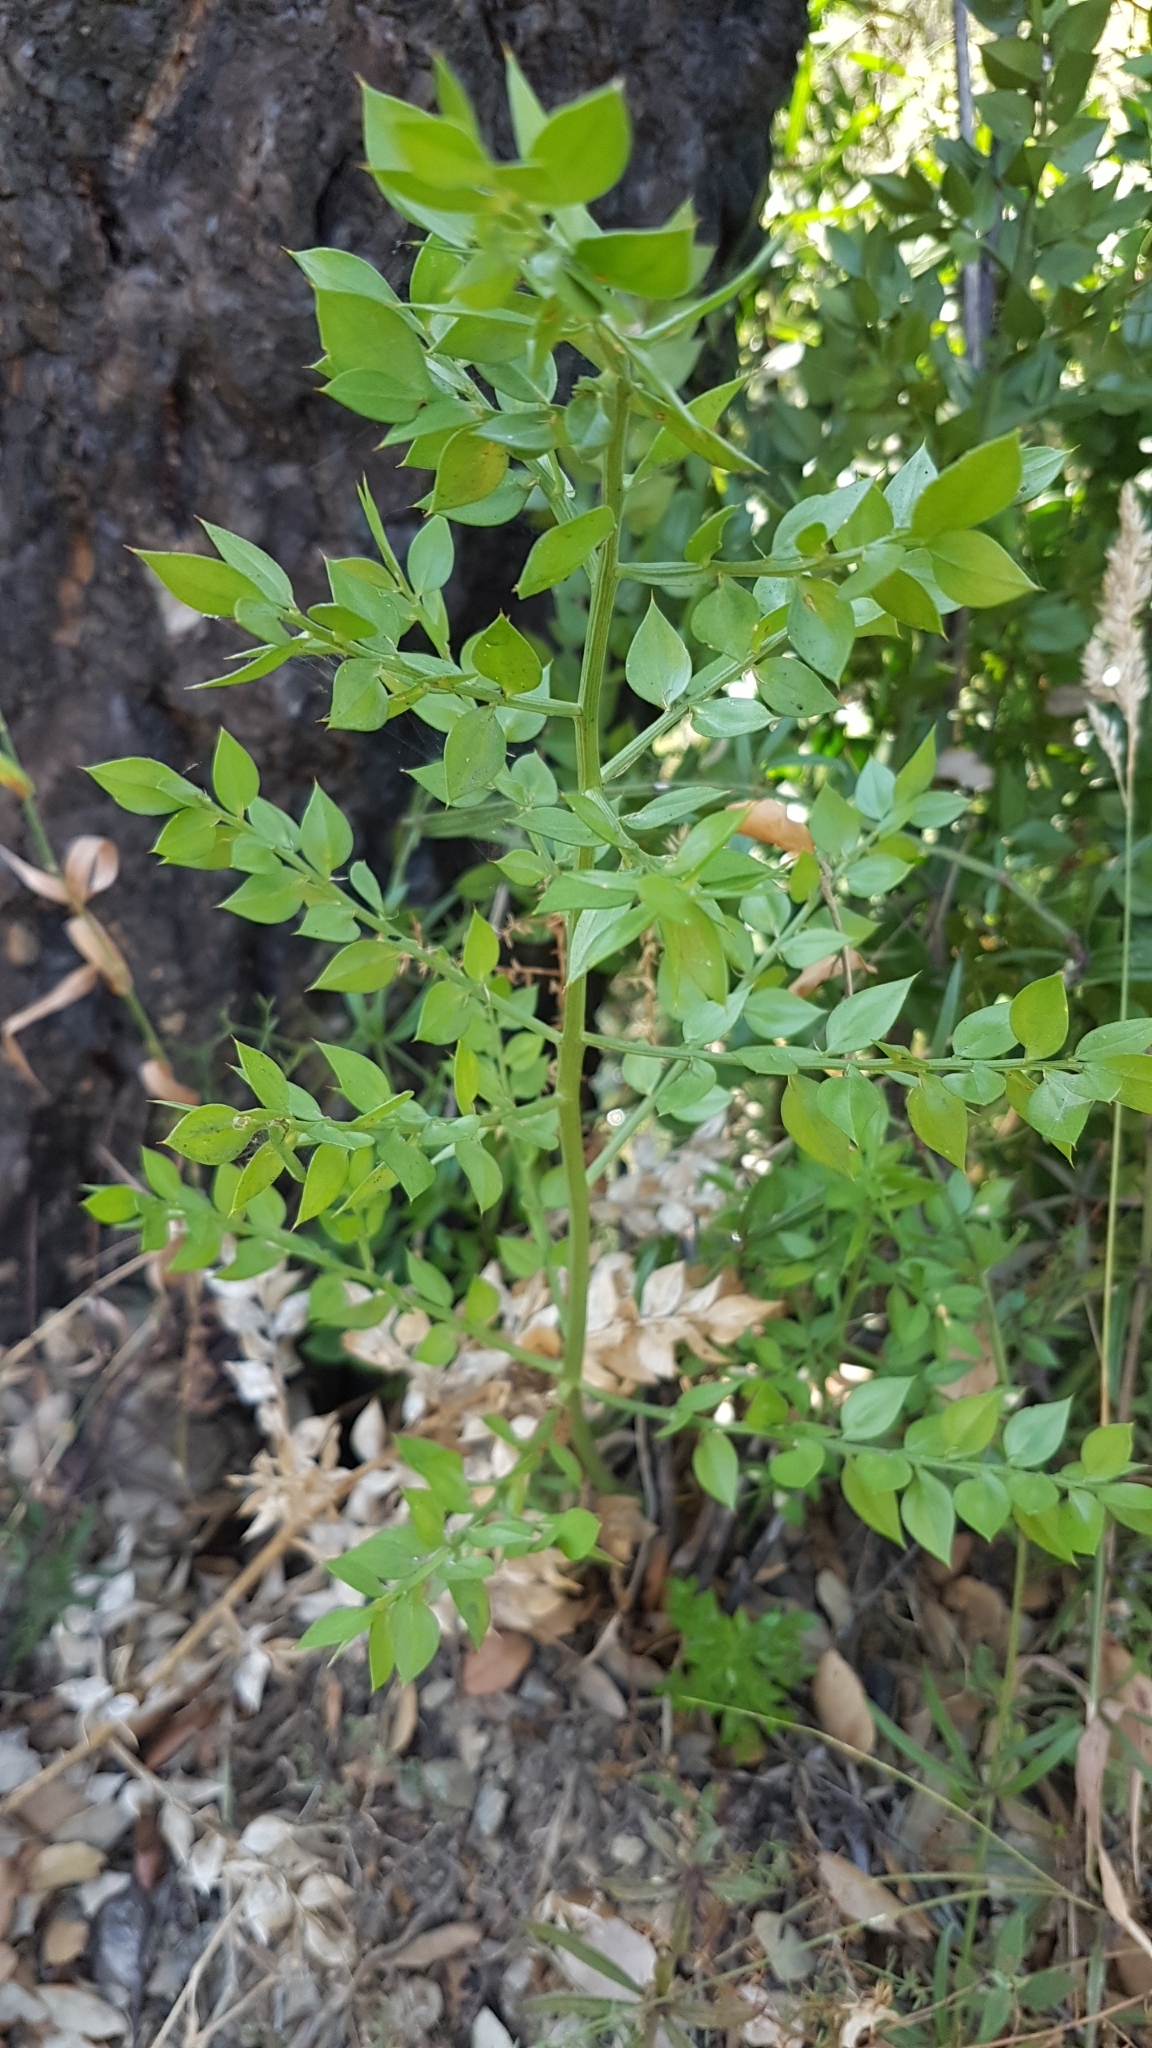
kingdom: Plantae
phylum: Tracheophyta
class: Liliopsida
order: Asparagales
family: Asparagaceae
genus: Ruscus
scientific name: Ruscus aculeatus
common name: Butcher's-broom
